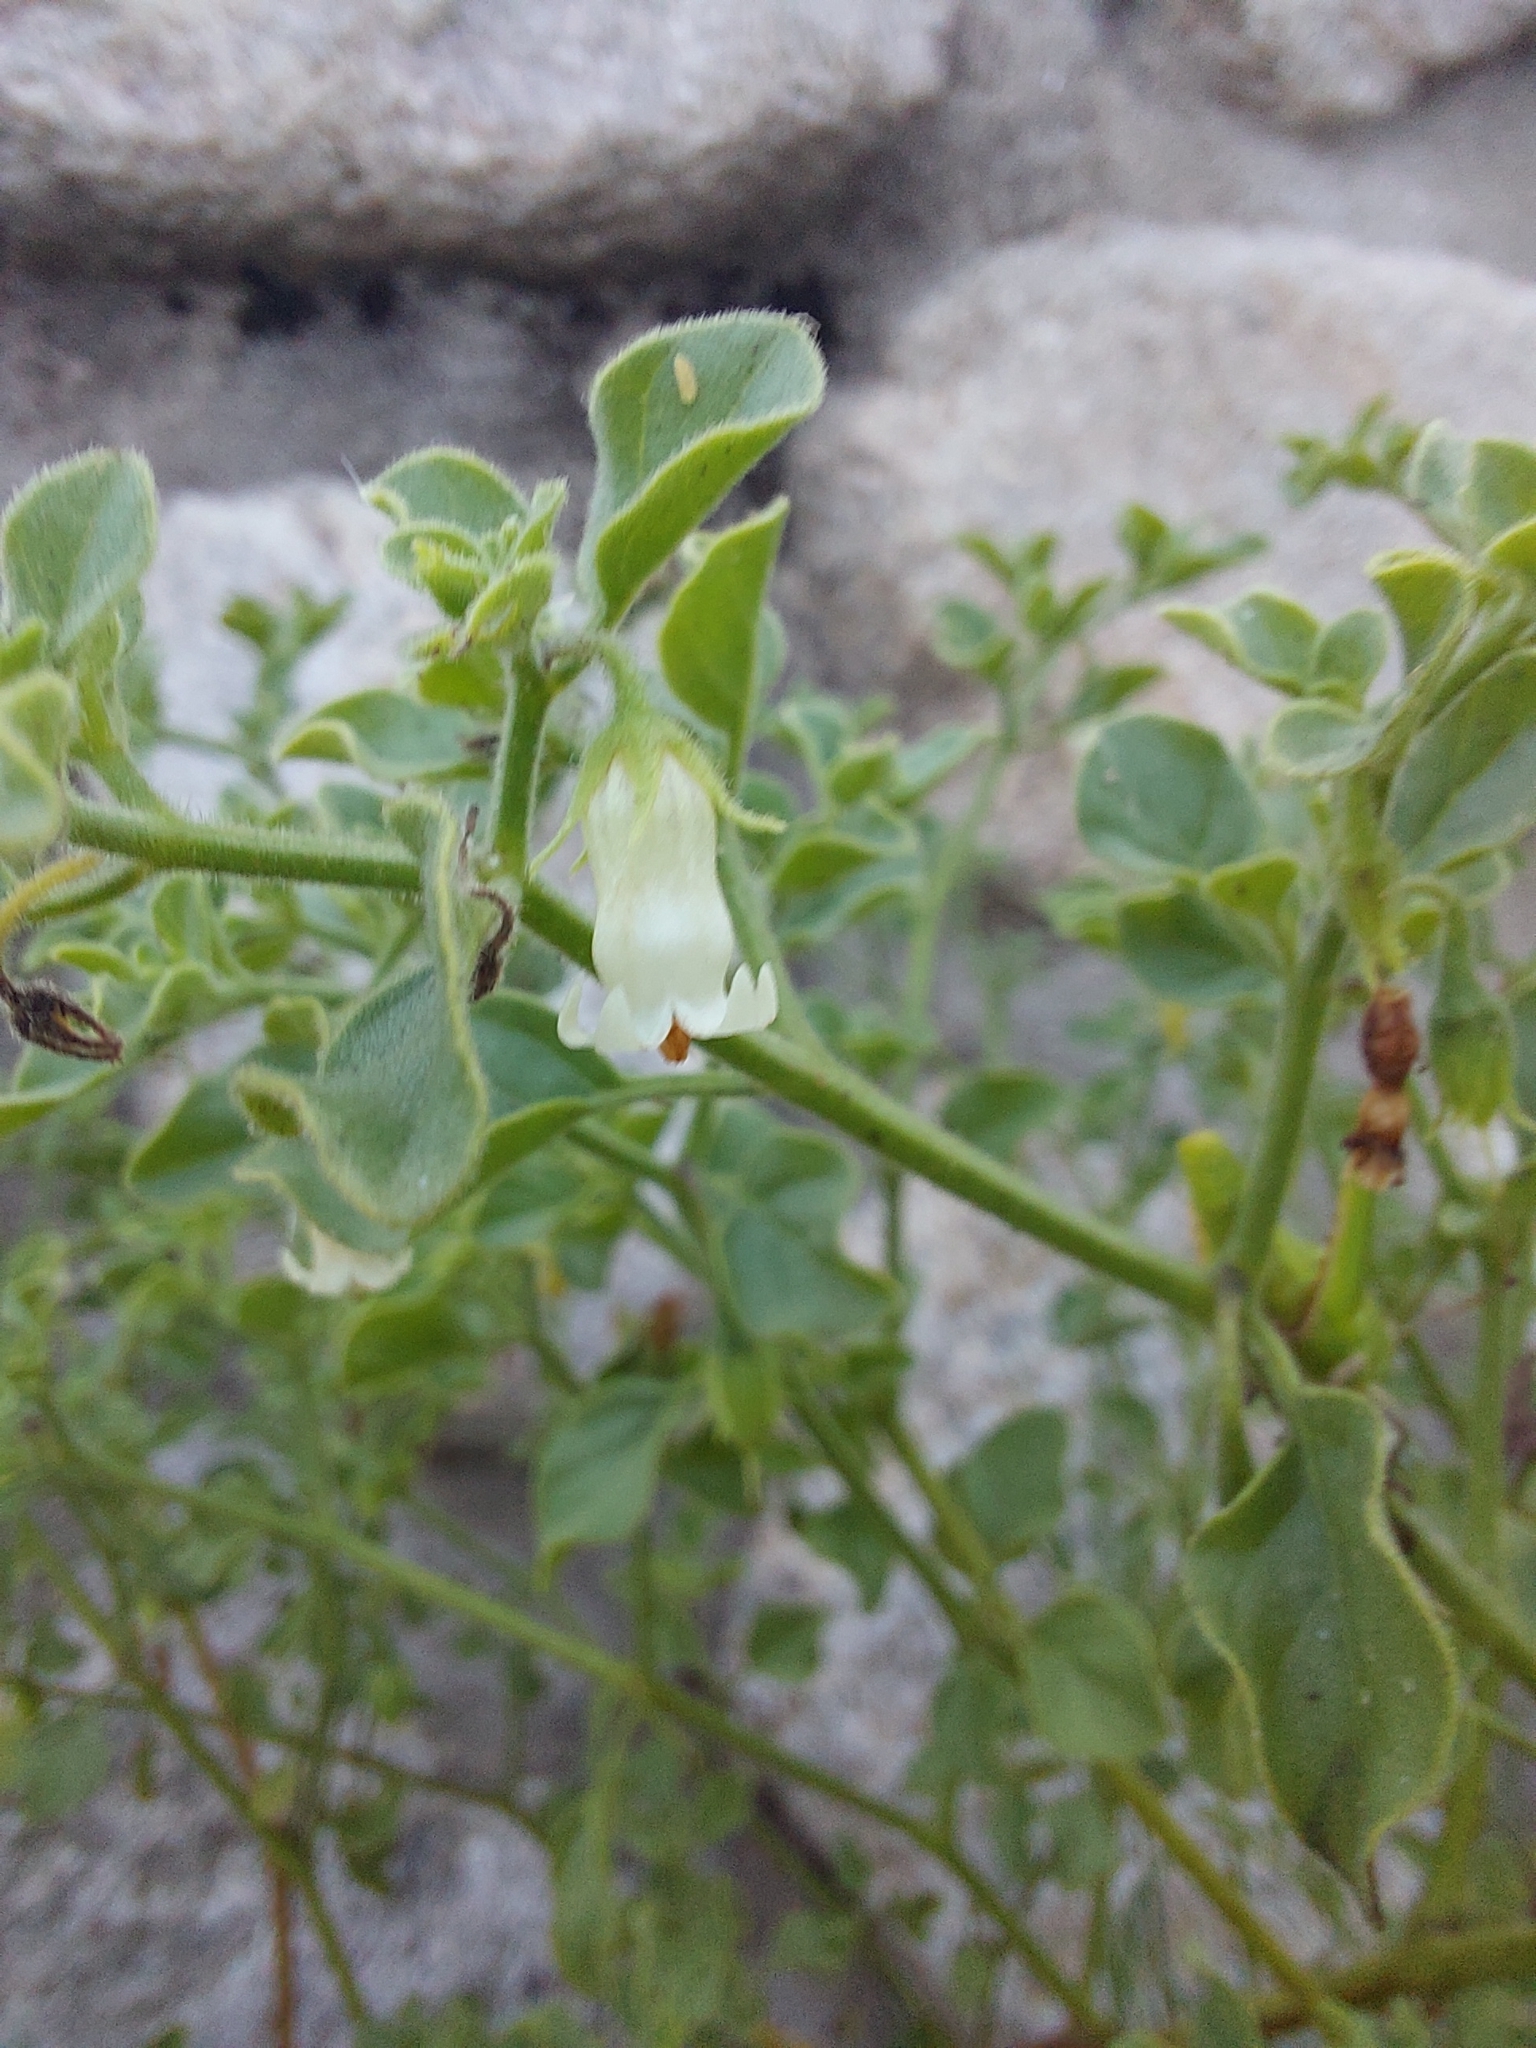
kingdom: Plantae
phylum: Tracheophyta
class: Magnoliopsida
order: Solanales
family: Solanaceae
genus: Salpichroa
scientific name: Salpichroa origanifolia
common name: Lily-of-the-valley-vine
